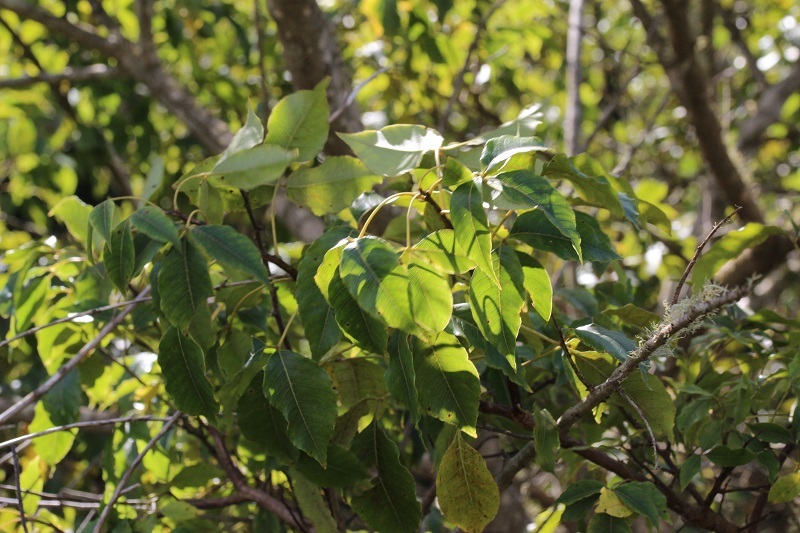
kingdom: Plantae
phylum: Tracheophyta
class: Magnoliopsida
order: Sapindales
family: Anacardiaceae
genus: Searsia
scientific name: Searsia chirindensis
